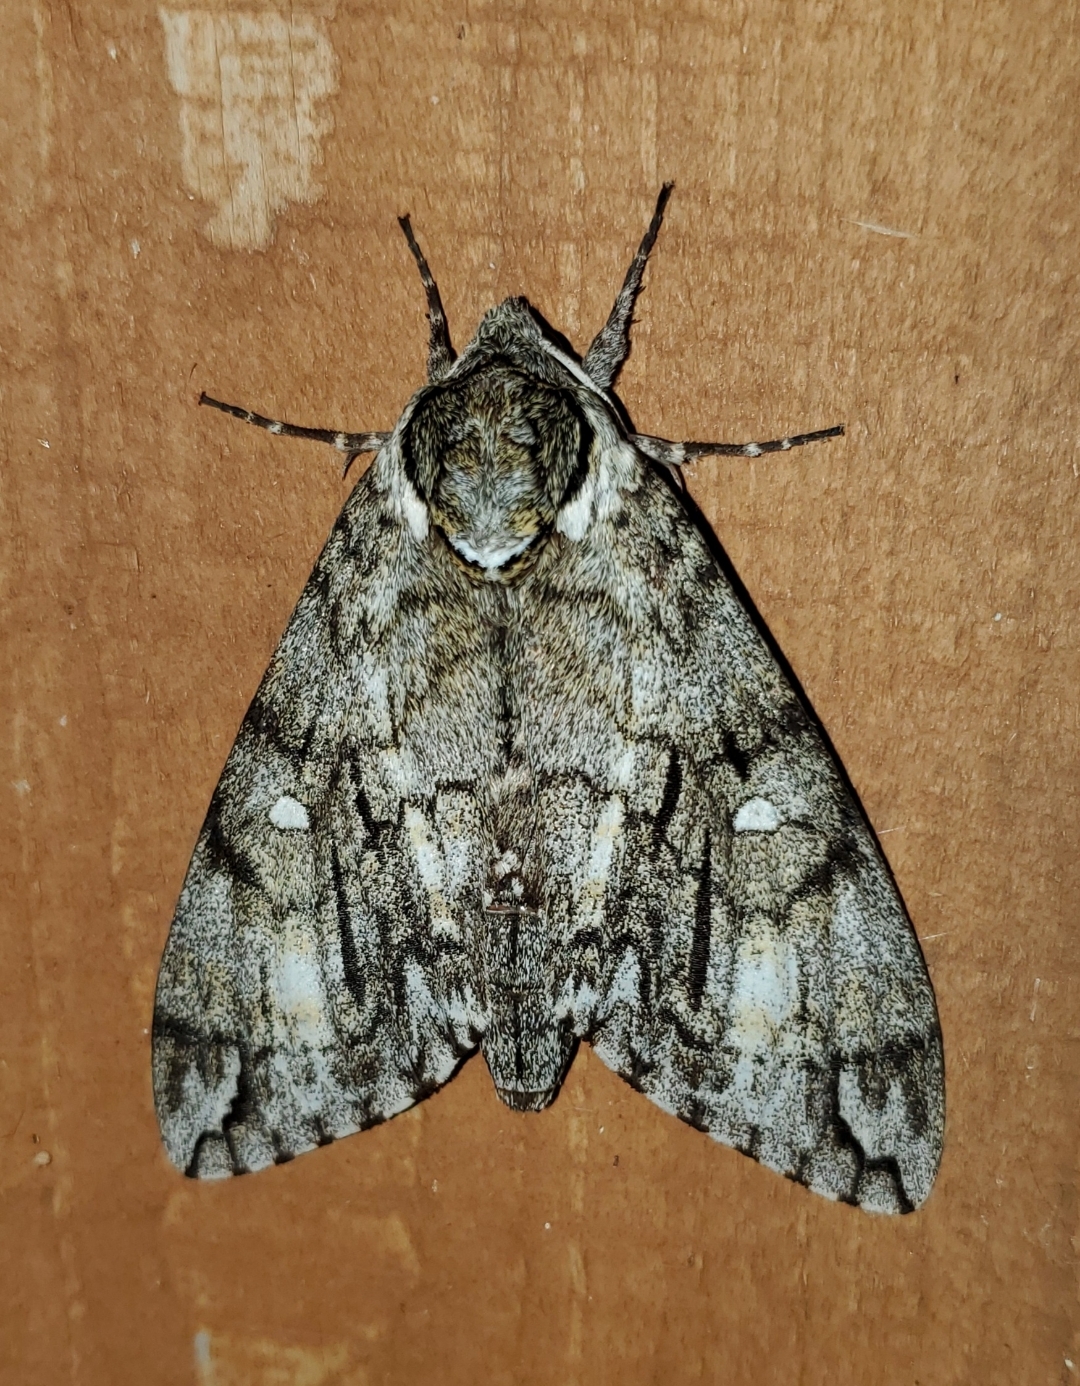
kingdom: Animalia
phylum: Arthropoda
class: Insecta
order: Lepidoptera
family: Sphingidae
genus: Ceratomia
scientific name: Ceratomia undulosa
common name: Waved sphinx
